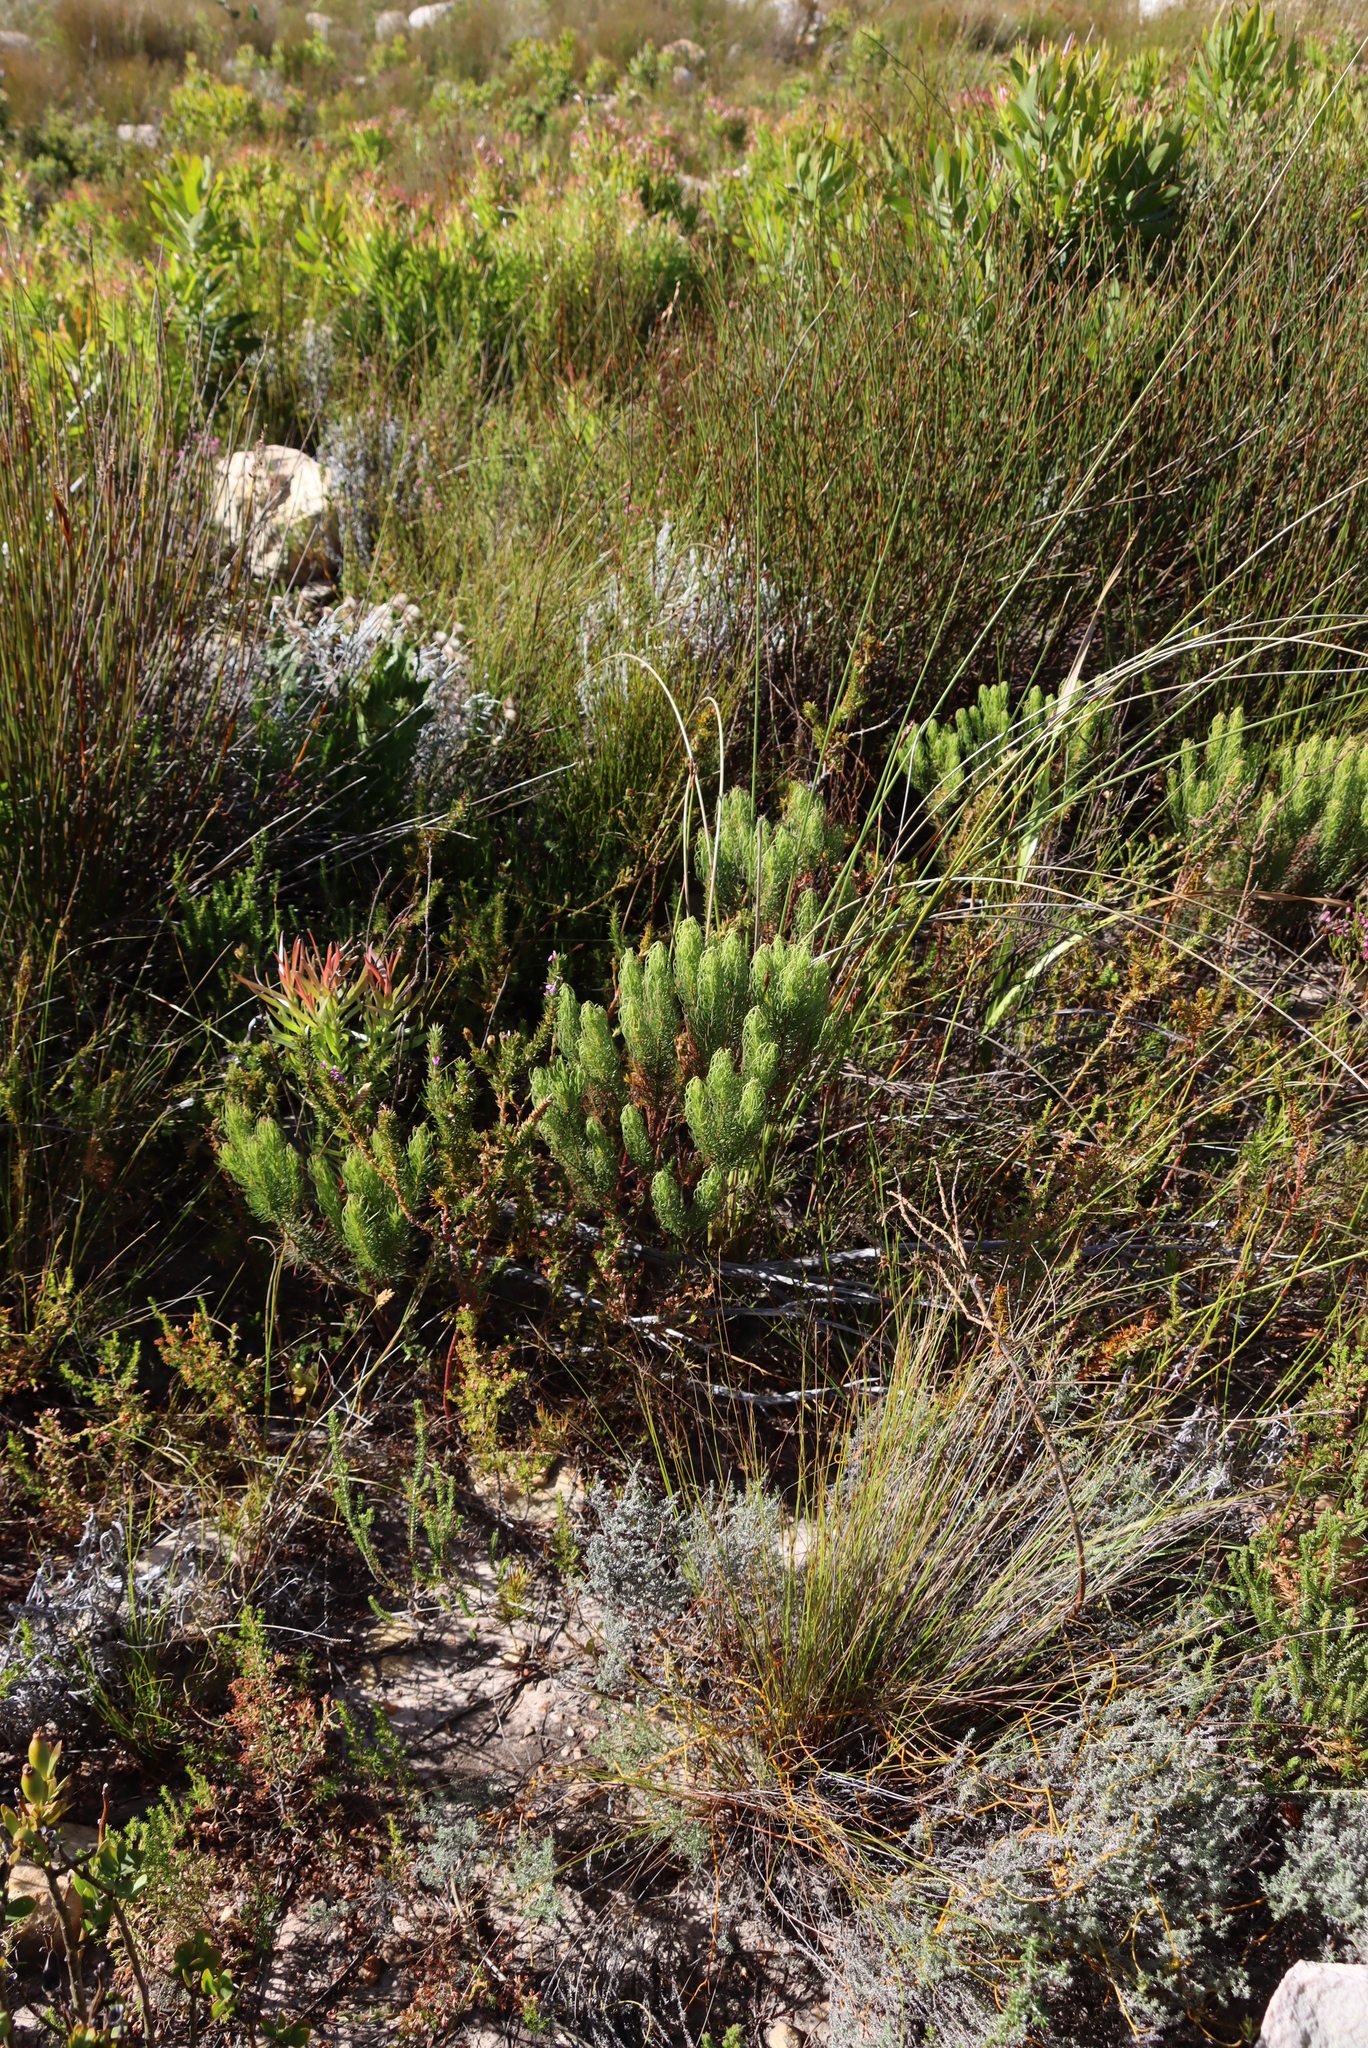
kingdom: Plantae
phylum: Tracheophyta
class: Magnoliopsida
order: Ericales
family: Ericaceae
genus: Erica
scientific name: Erica plukenetii
